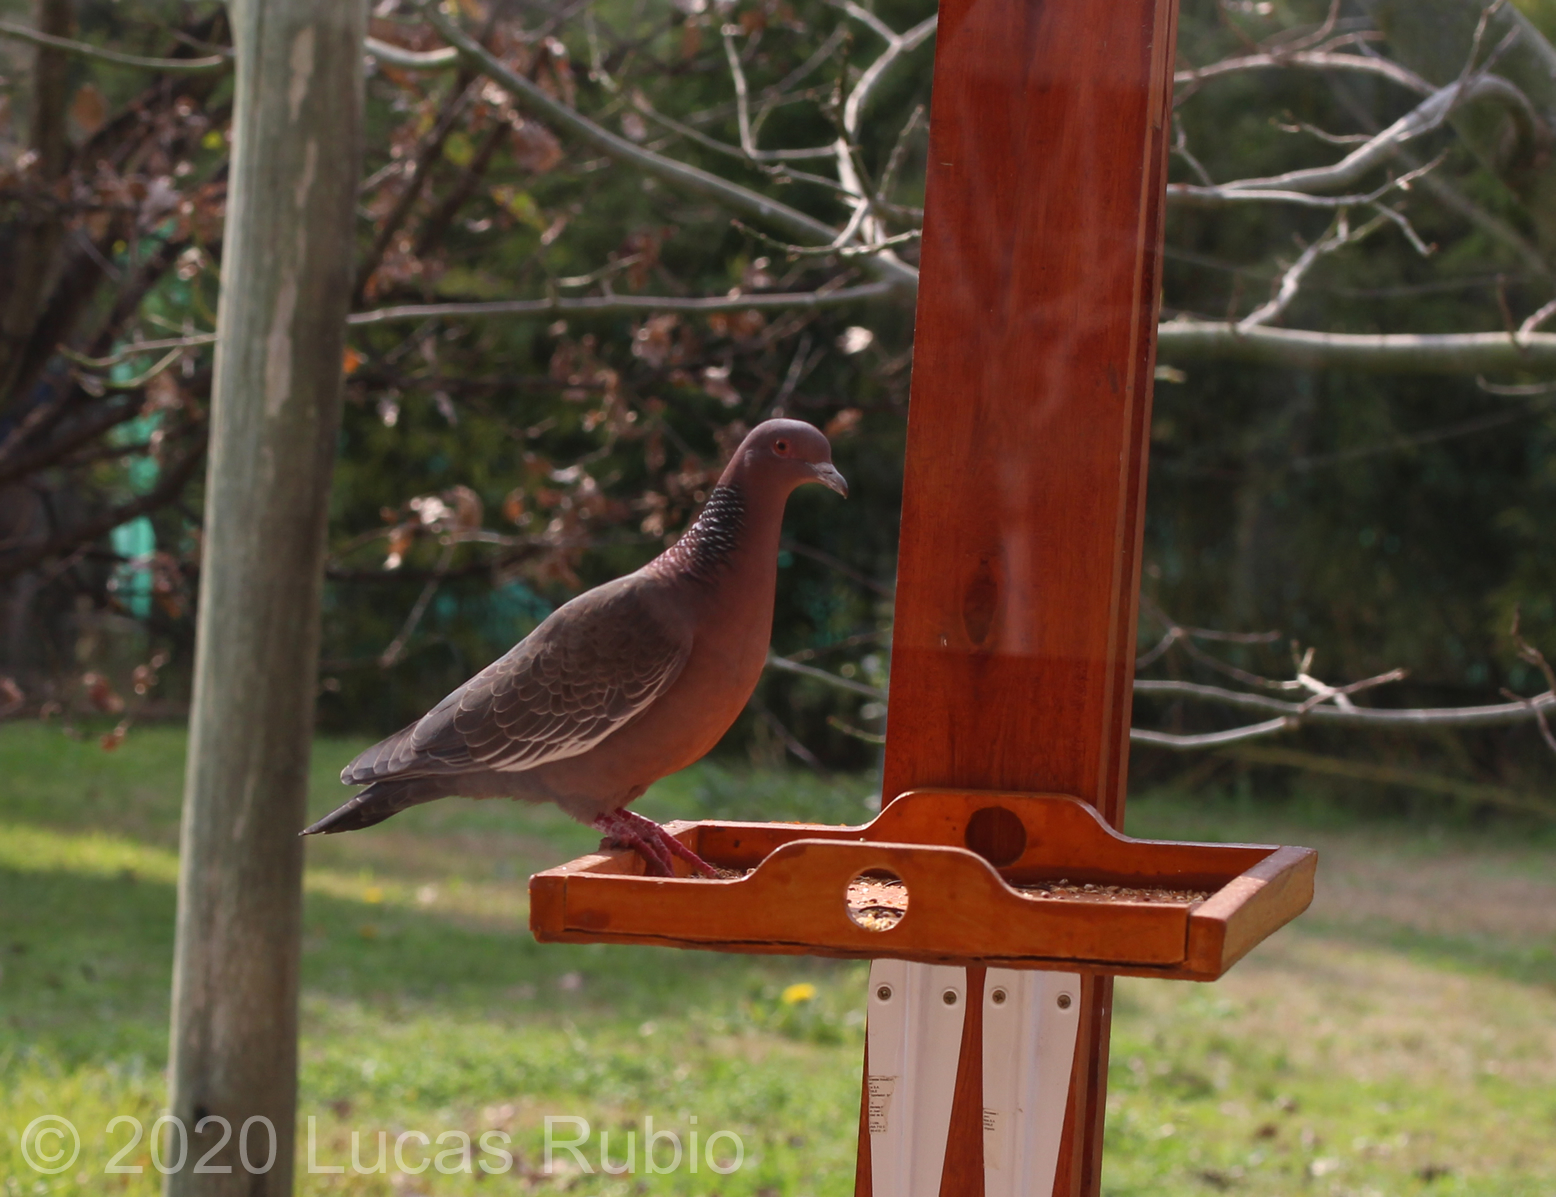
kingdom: Animalia
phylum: Chordata
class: Aves
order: Columbiformes
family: Columbidae
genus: Patagioenas
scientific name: Patagioenas picazuro
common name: Picazuro pigeon
